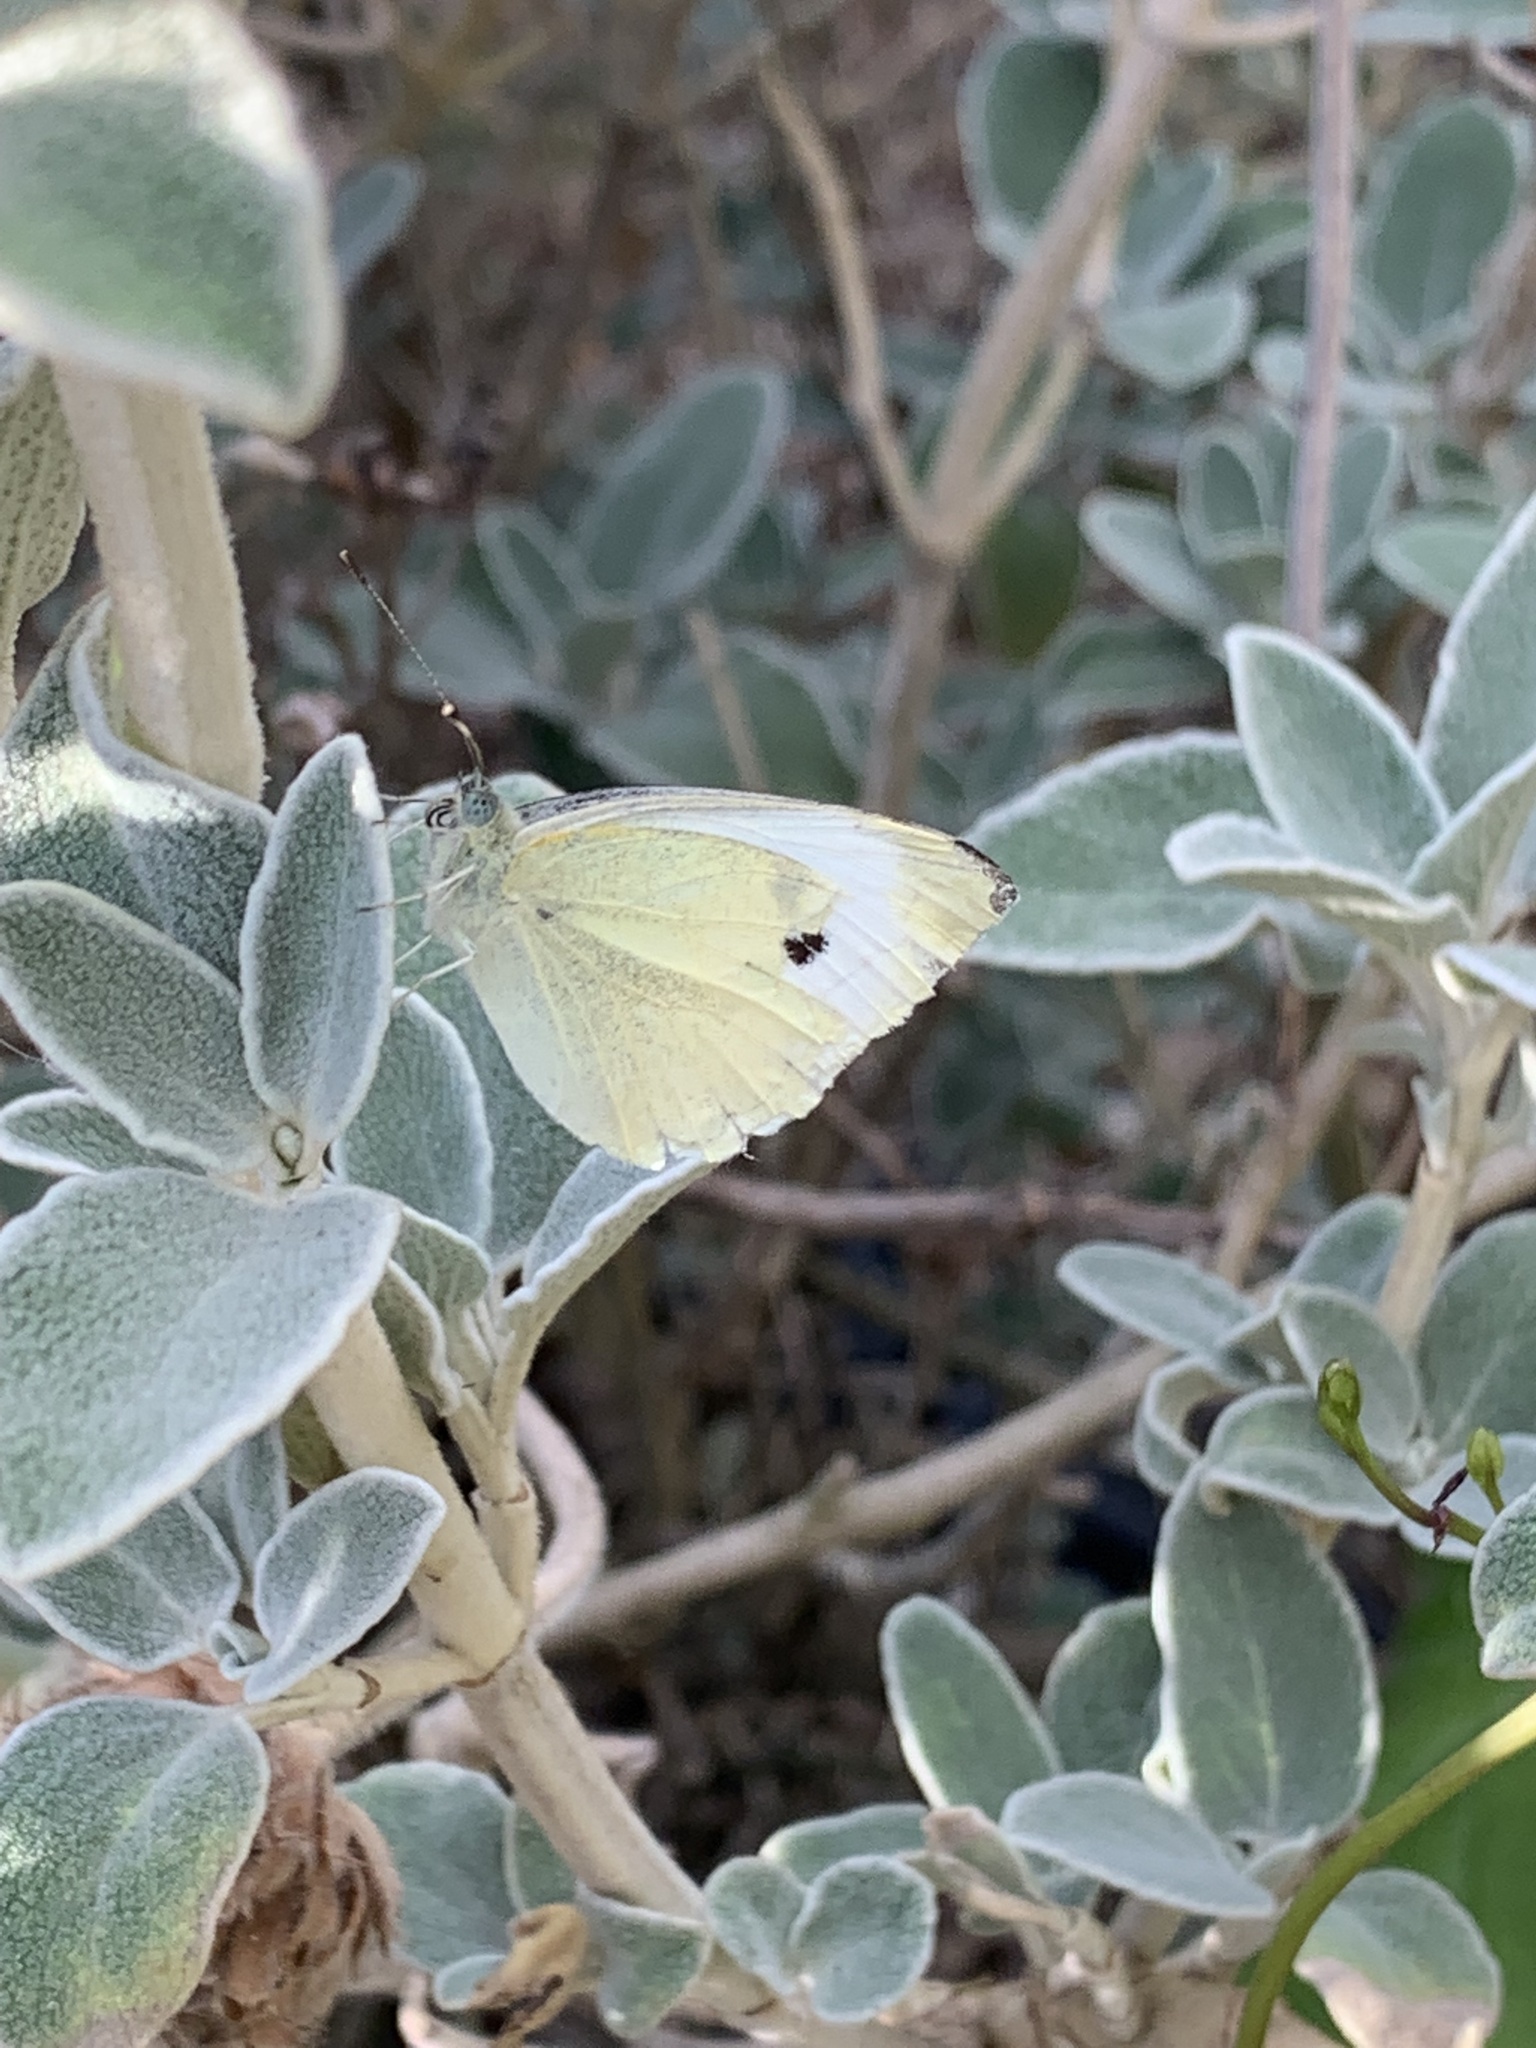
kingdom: Animalia
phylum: Arthropoda
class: Insecta
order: Lepidoptera
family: Pieridae
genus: Pieris
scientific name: Pieris rapae
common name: Small white
